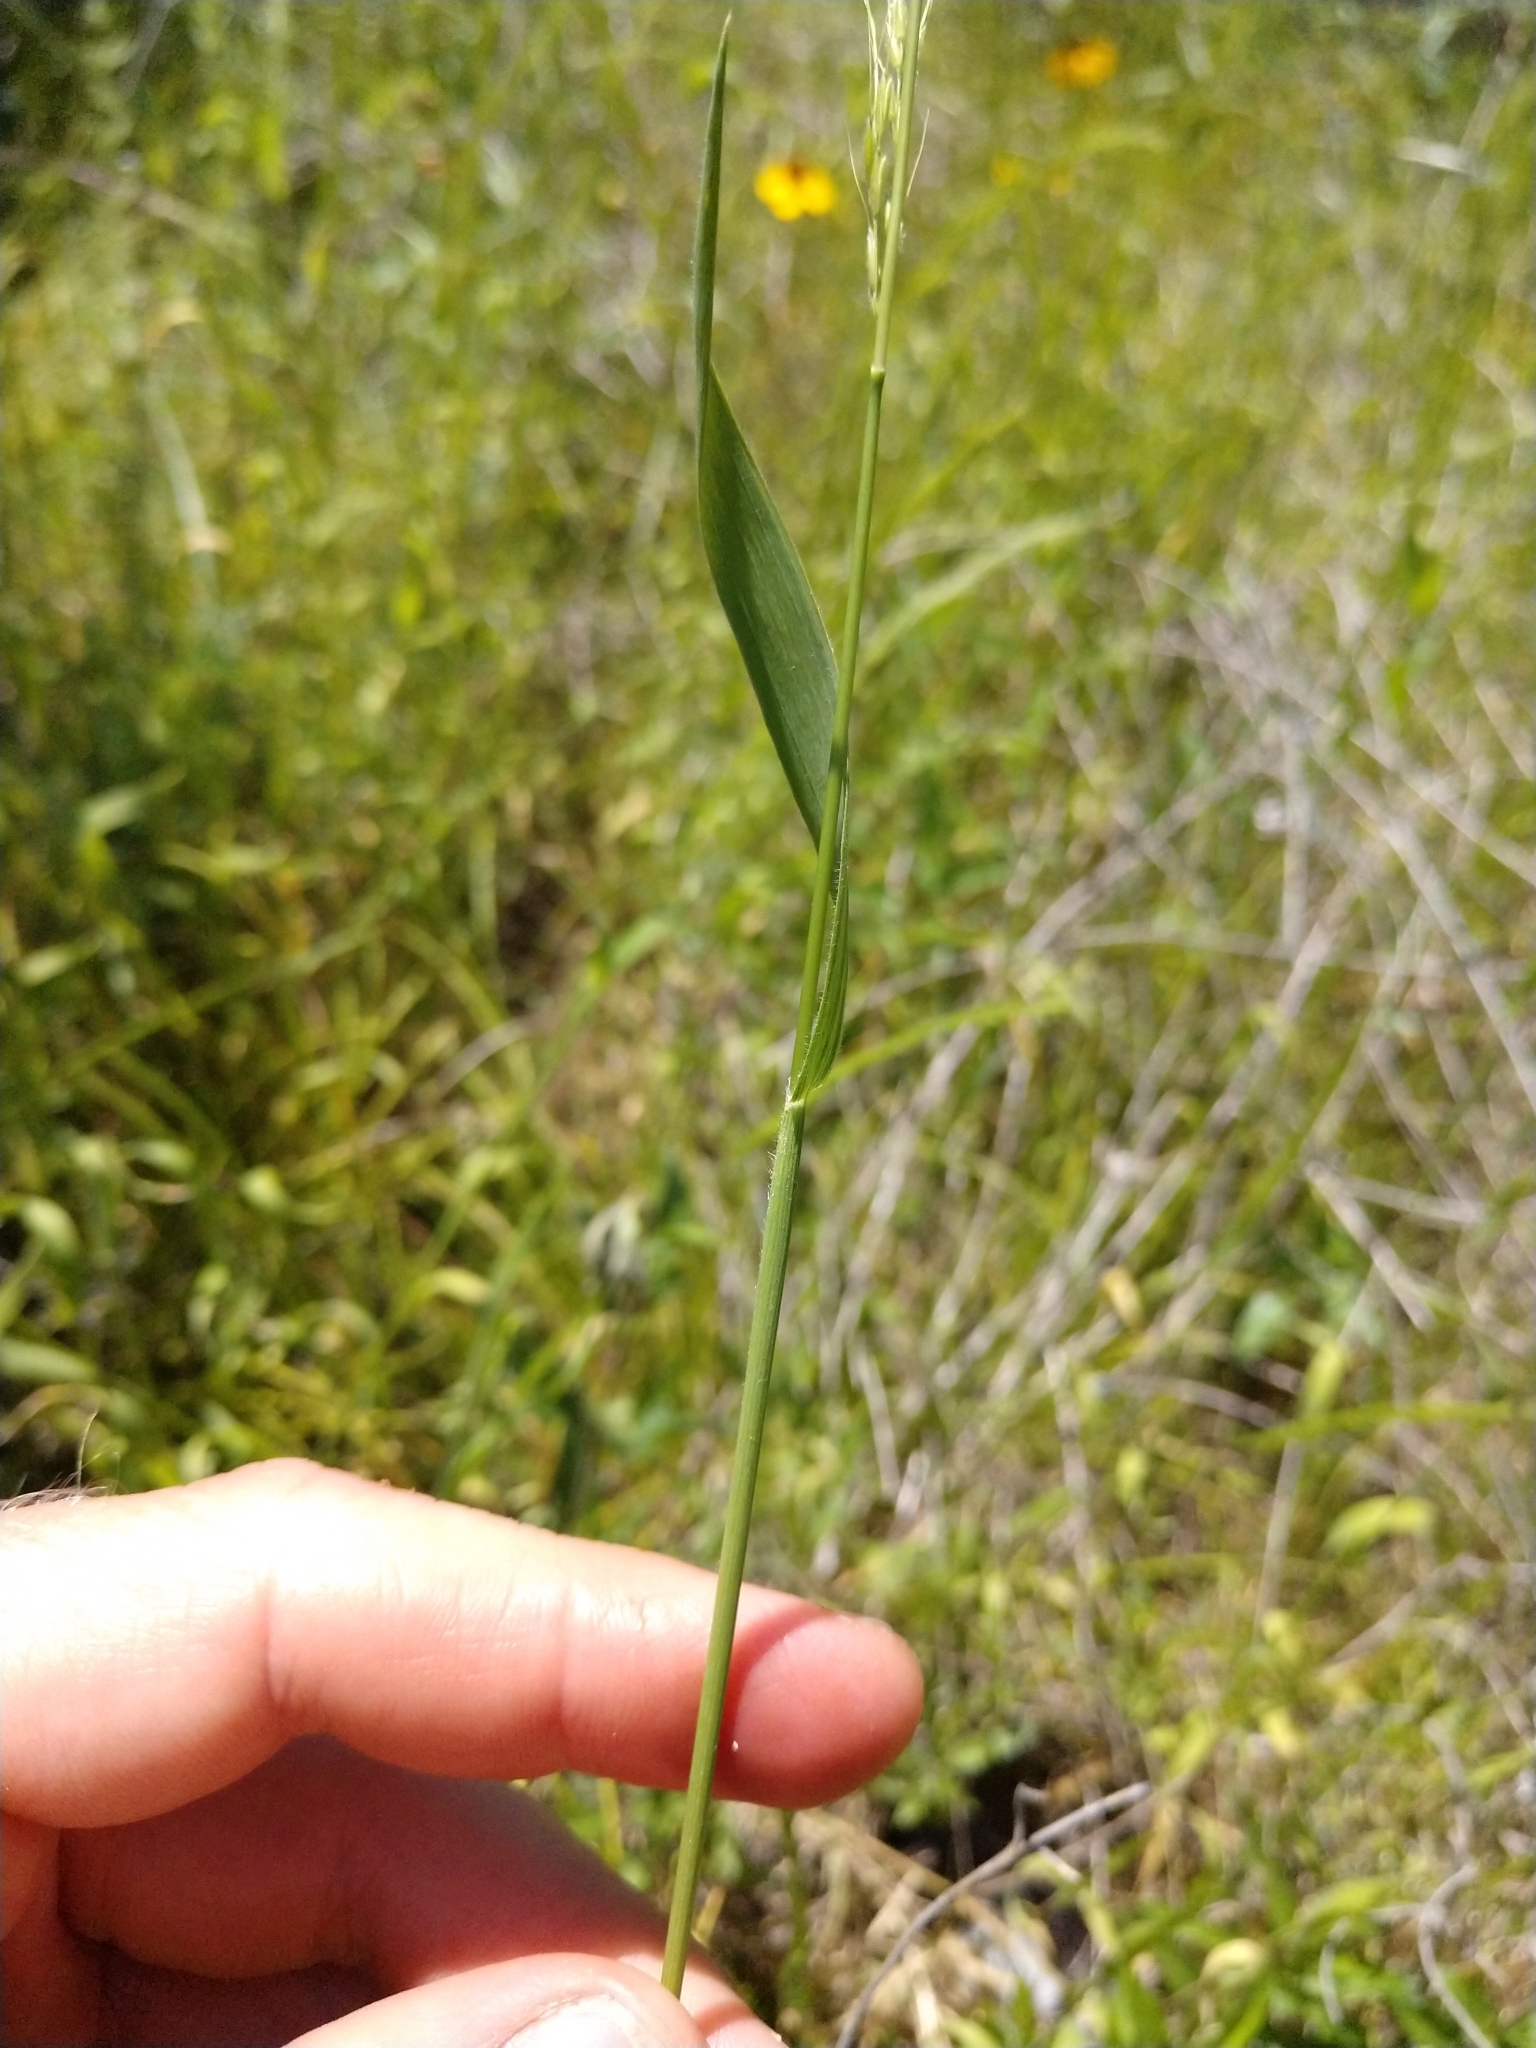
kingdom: Plantae
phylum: Tracheophyta
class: Liliopsida
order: Poales
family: Poaceae
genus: Limnodea
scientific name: Limnodea arkansana
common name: Ozark-grass
